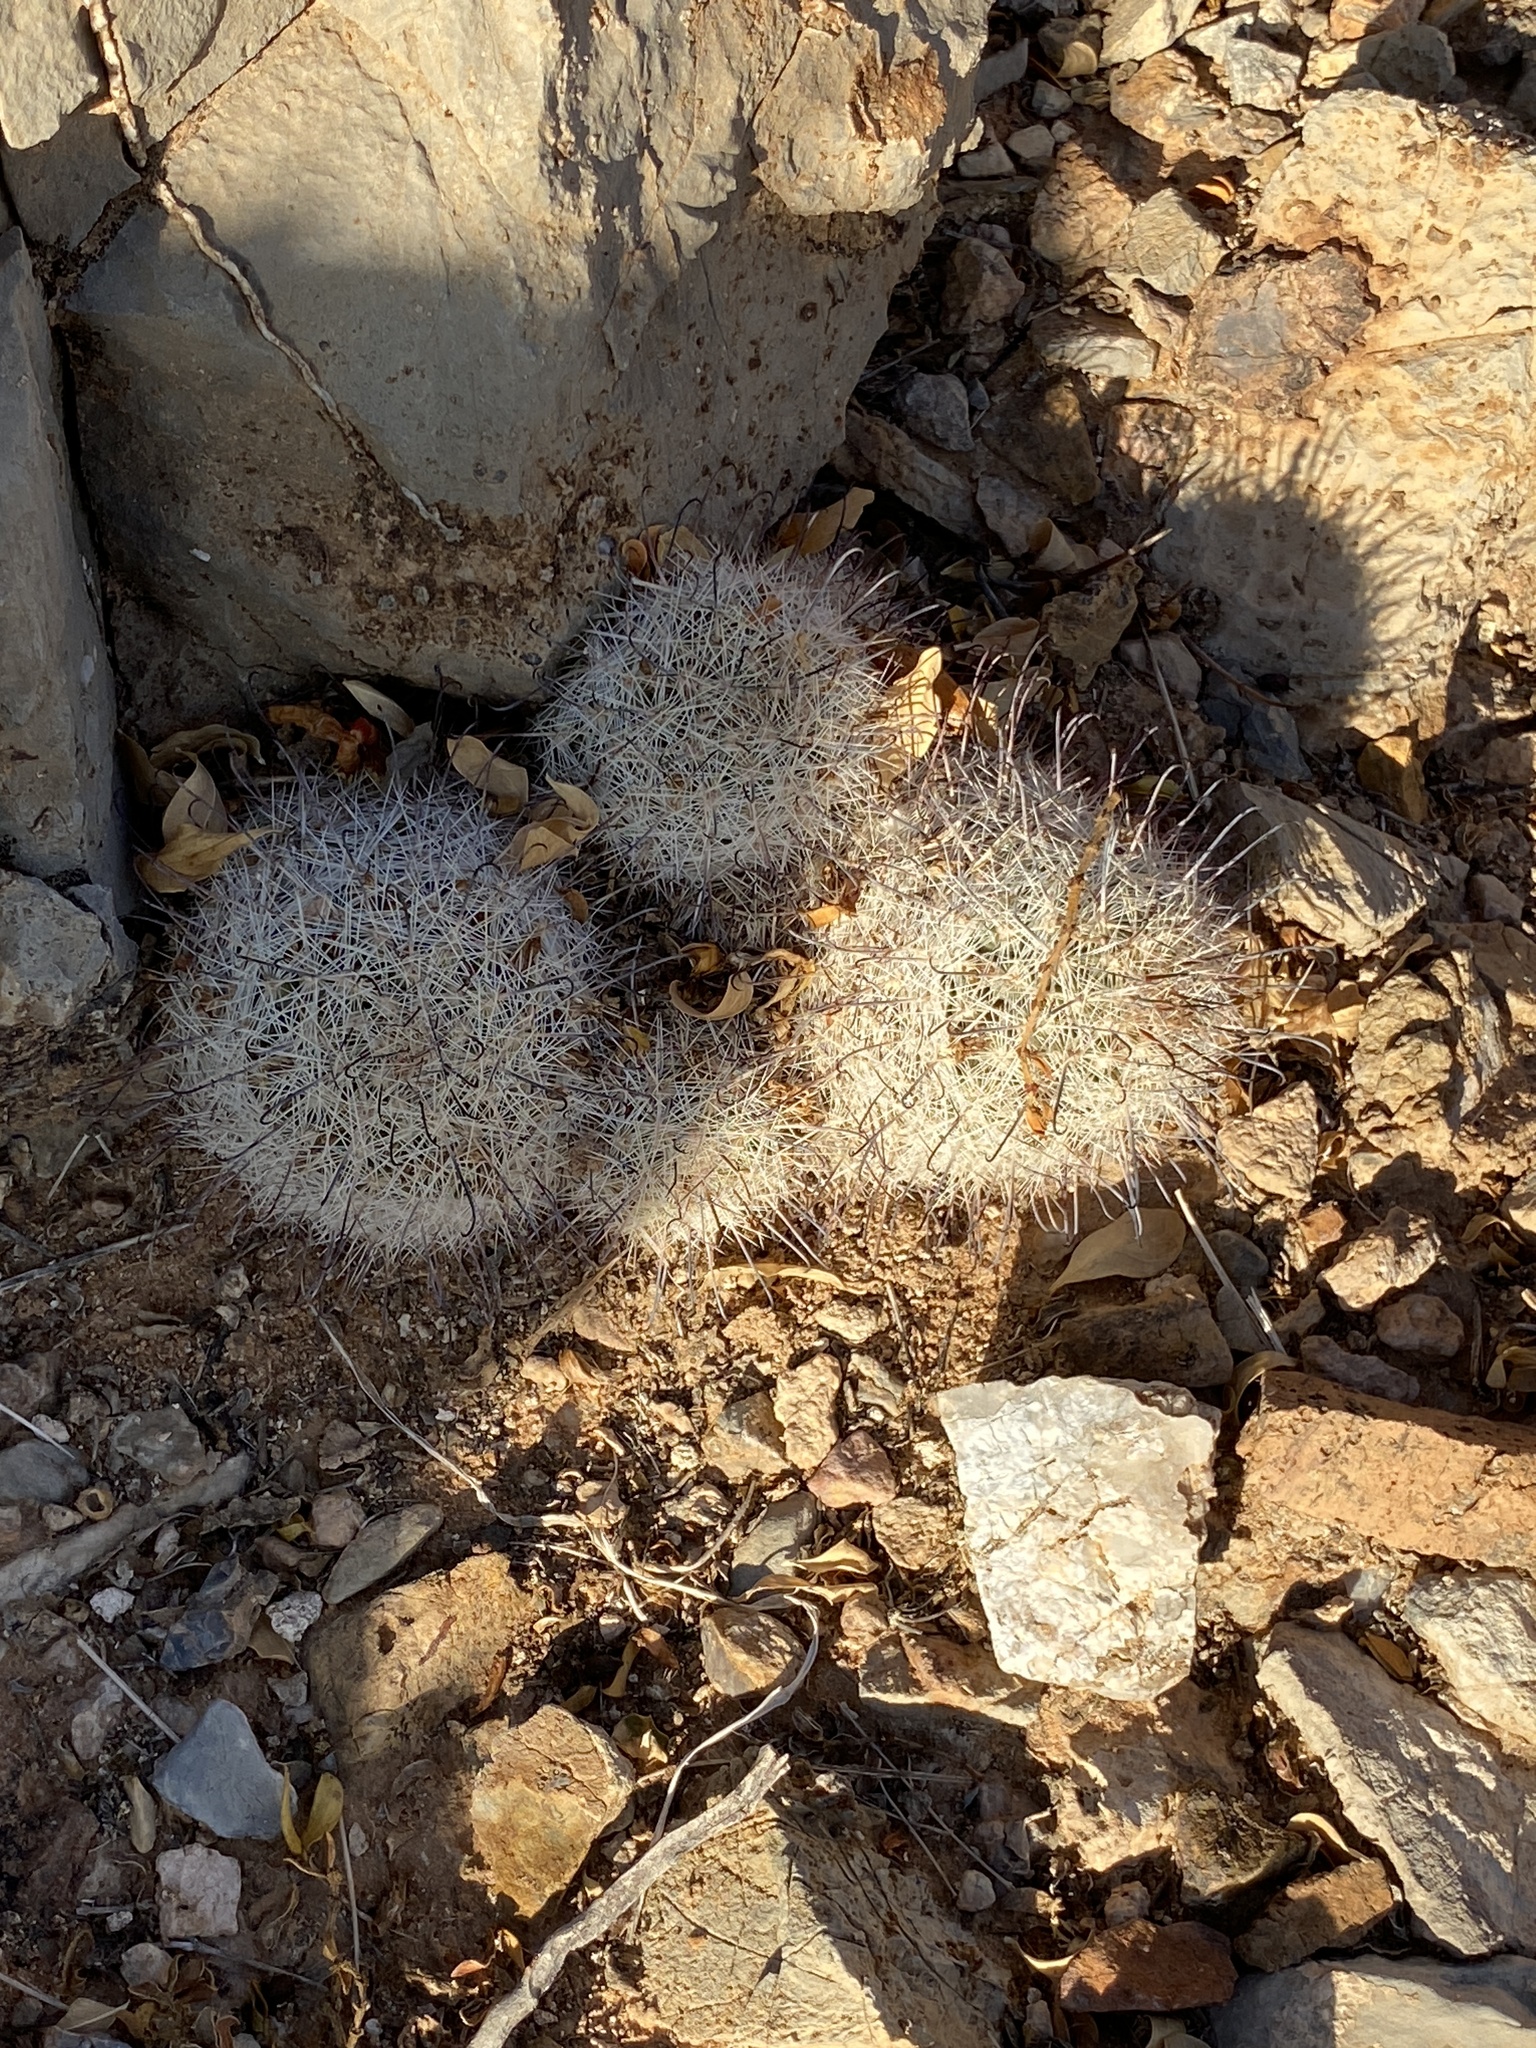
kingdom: Plantae
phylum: Tracheophyta
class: Magnoliopsida
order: Caryophyllales
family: Cactaceae
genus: Cochemiea
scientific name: Cochemiea grahamii
